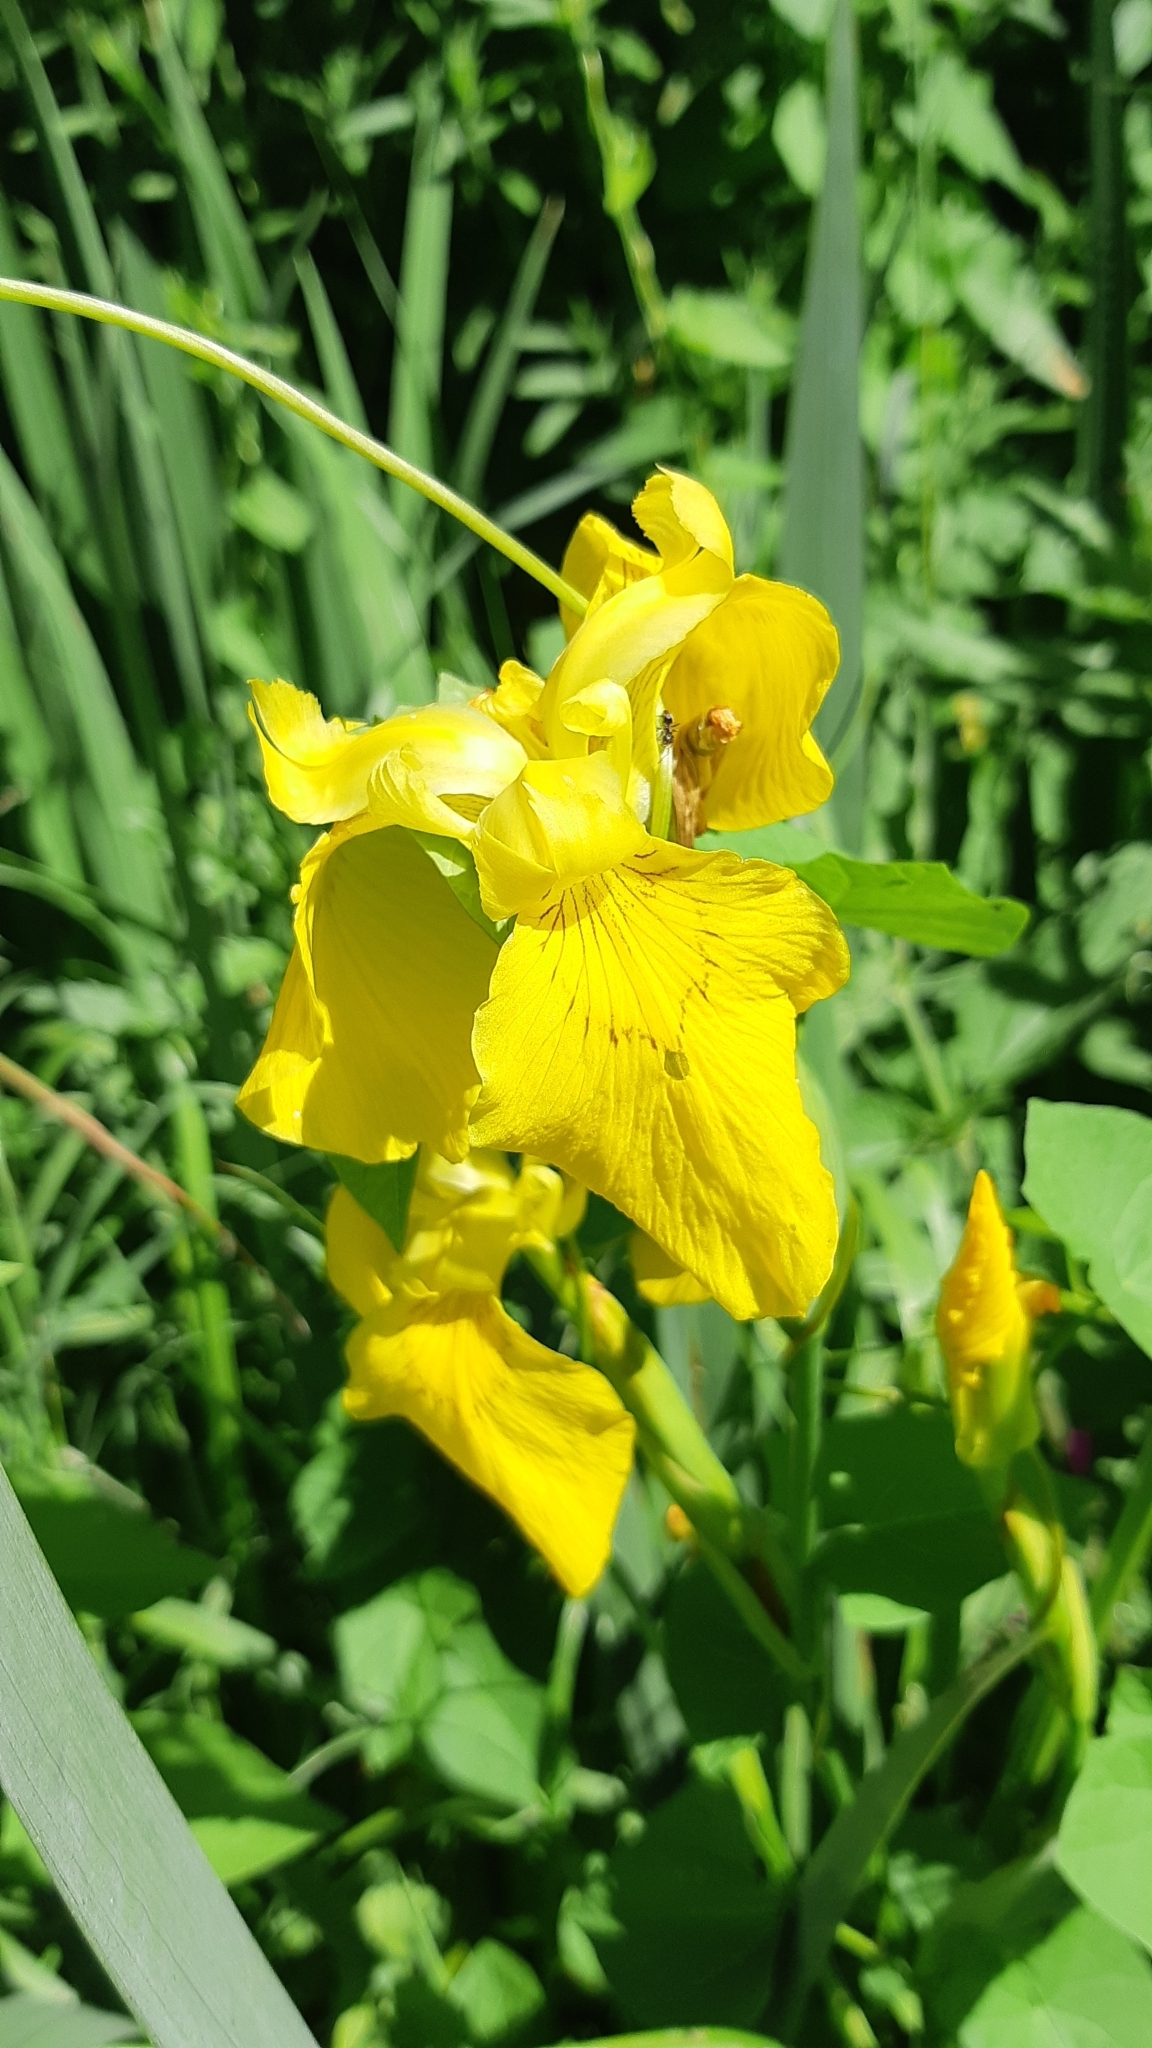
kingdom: Plantae
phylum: Tracheophyta
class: Liliopsida
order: Asparagales
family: Iridaceae
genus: Iris
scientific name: Iris pseudacorus
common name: Yellow flag
